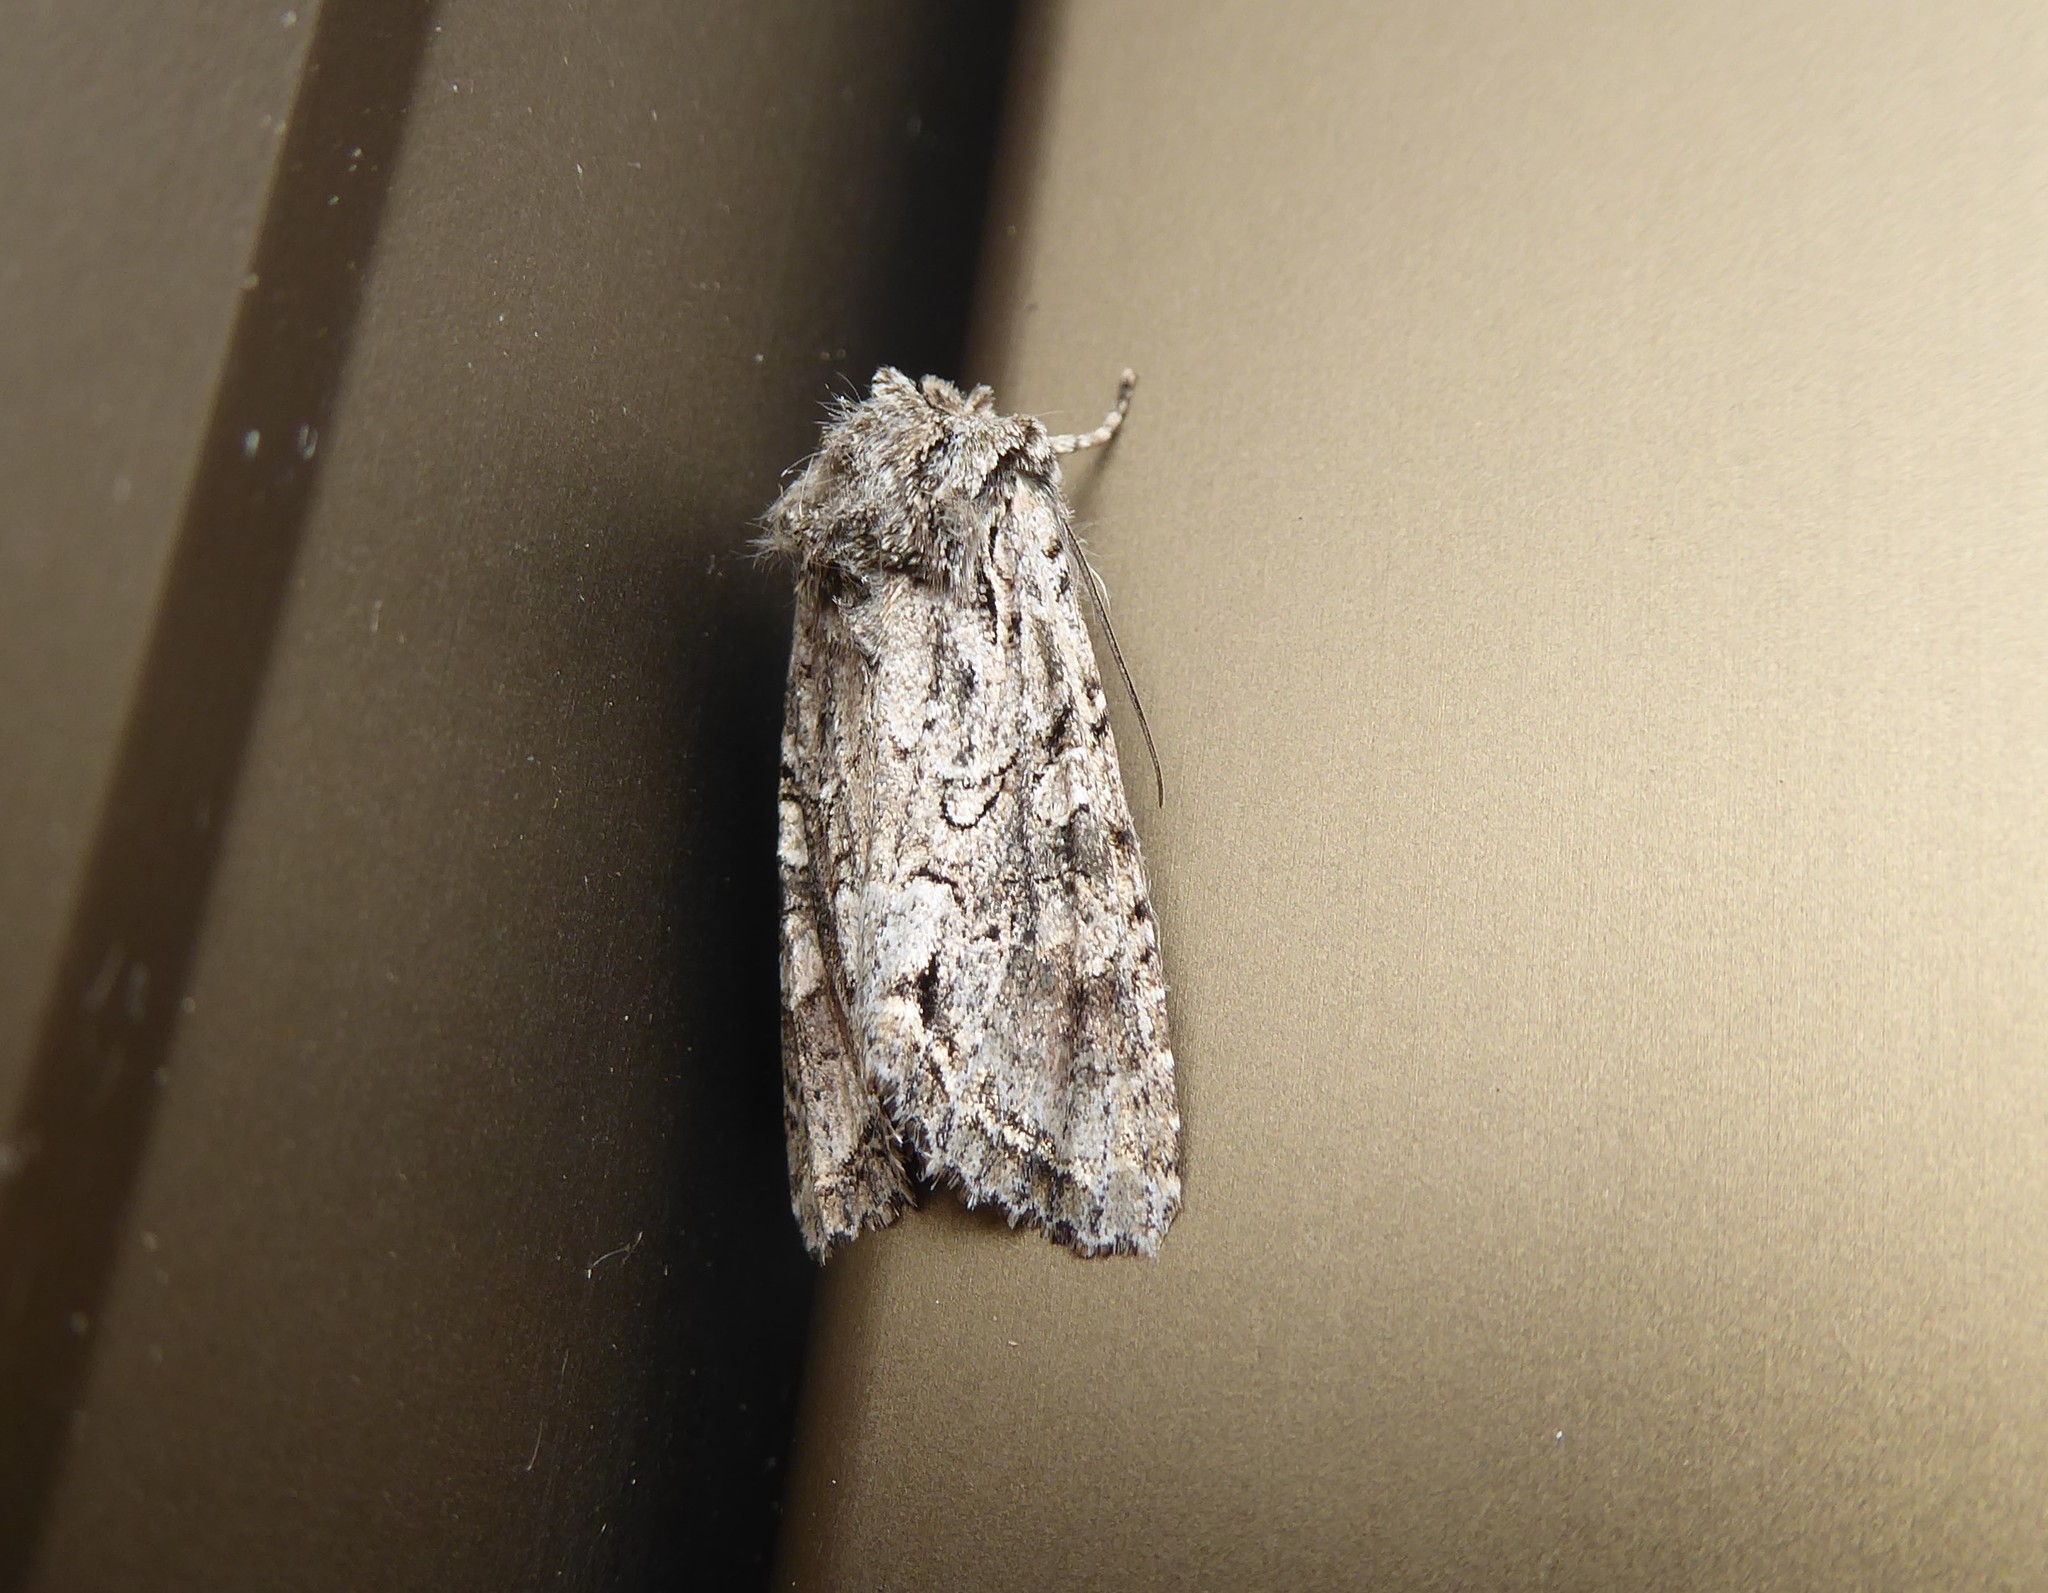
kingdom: Animalia
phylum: Arthropoda
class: Insecta
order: Lepidoptera
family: Noctuidae
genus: Ichneutica
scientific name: Ichneutica mutans
